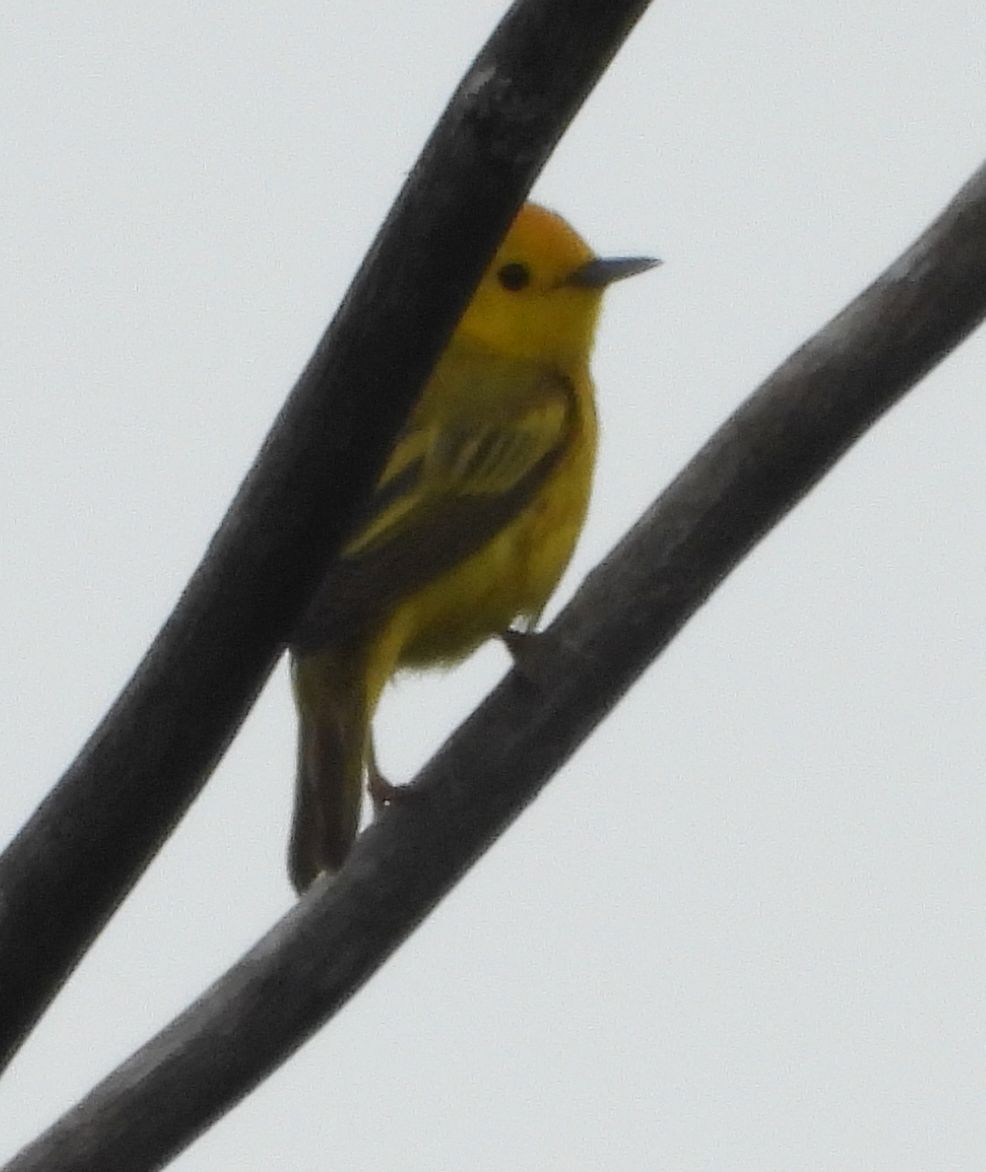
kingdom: Animalia
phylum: Chordata
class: Aves
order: Passeriformes
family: Parulidae
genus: Setophaga
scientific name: Setophaga petechia
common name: Yellow warbler
